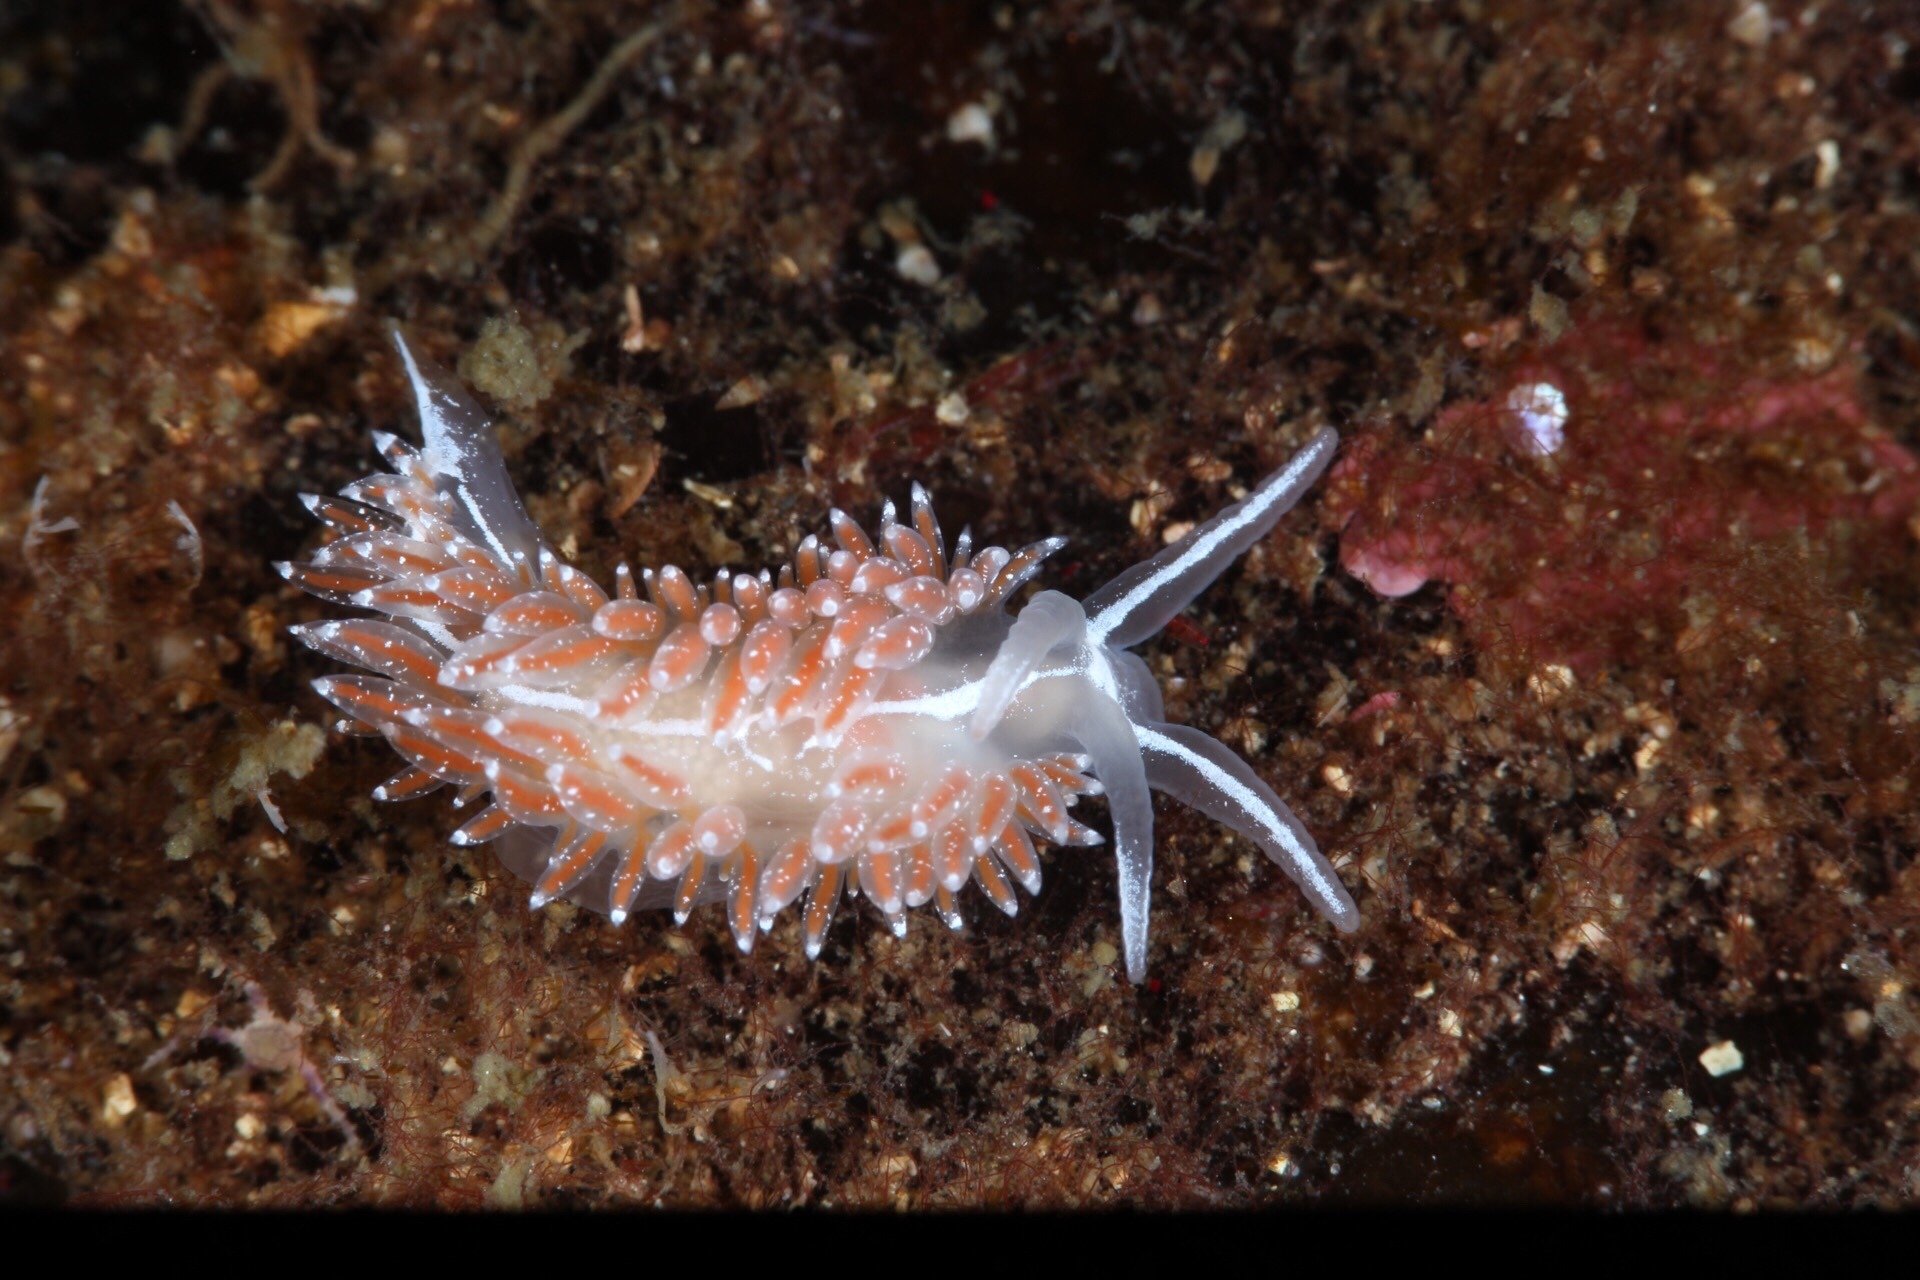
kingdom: Animalia
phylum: Mollusca
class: Gastropoda
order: Nudibranchia
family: Coryphellidae
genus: Coryphella
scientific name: Coryphella orjani
